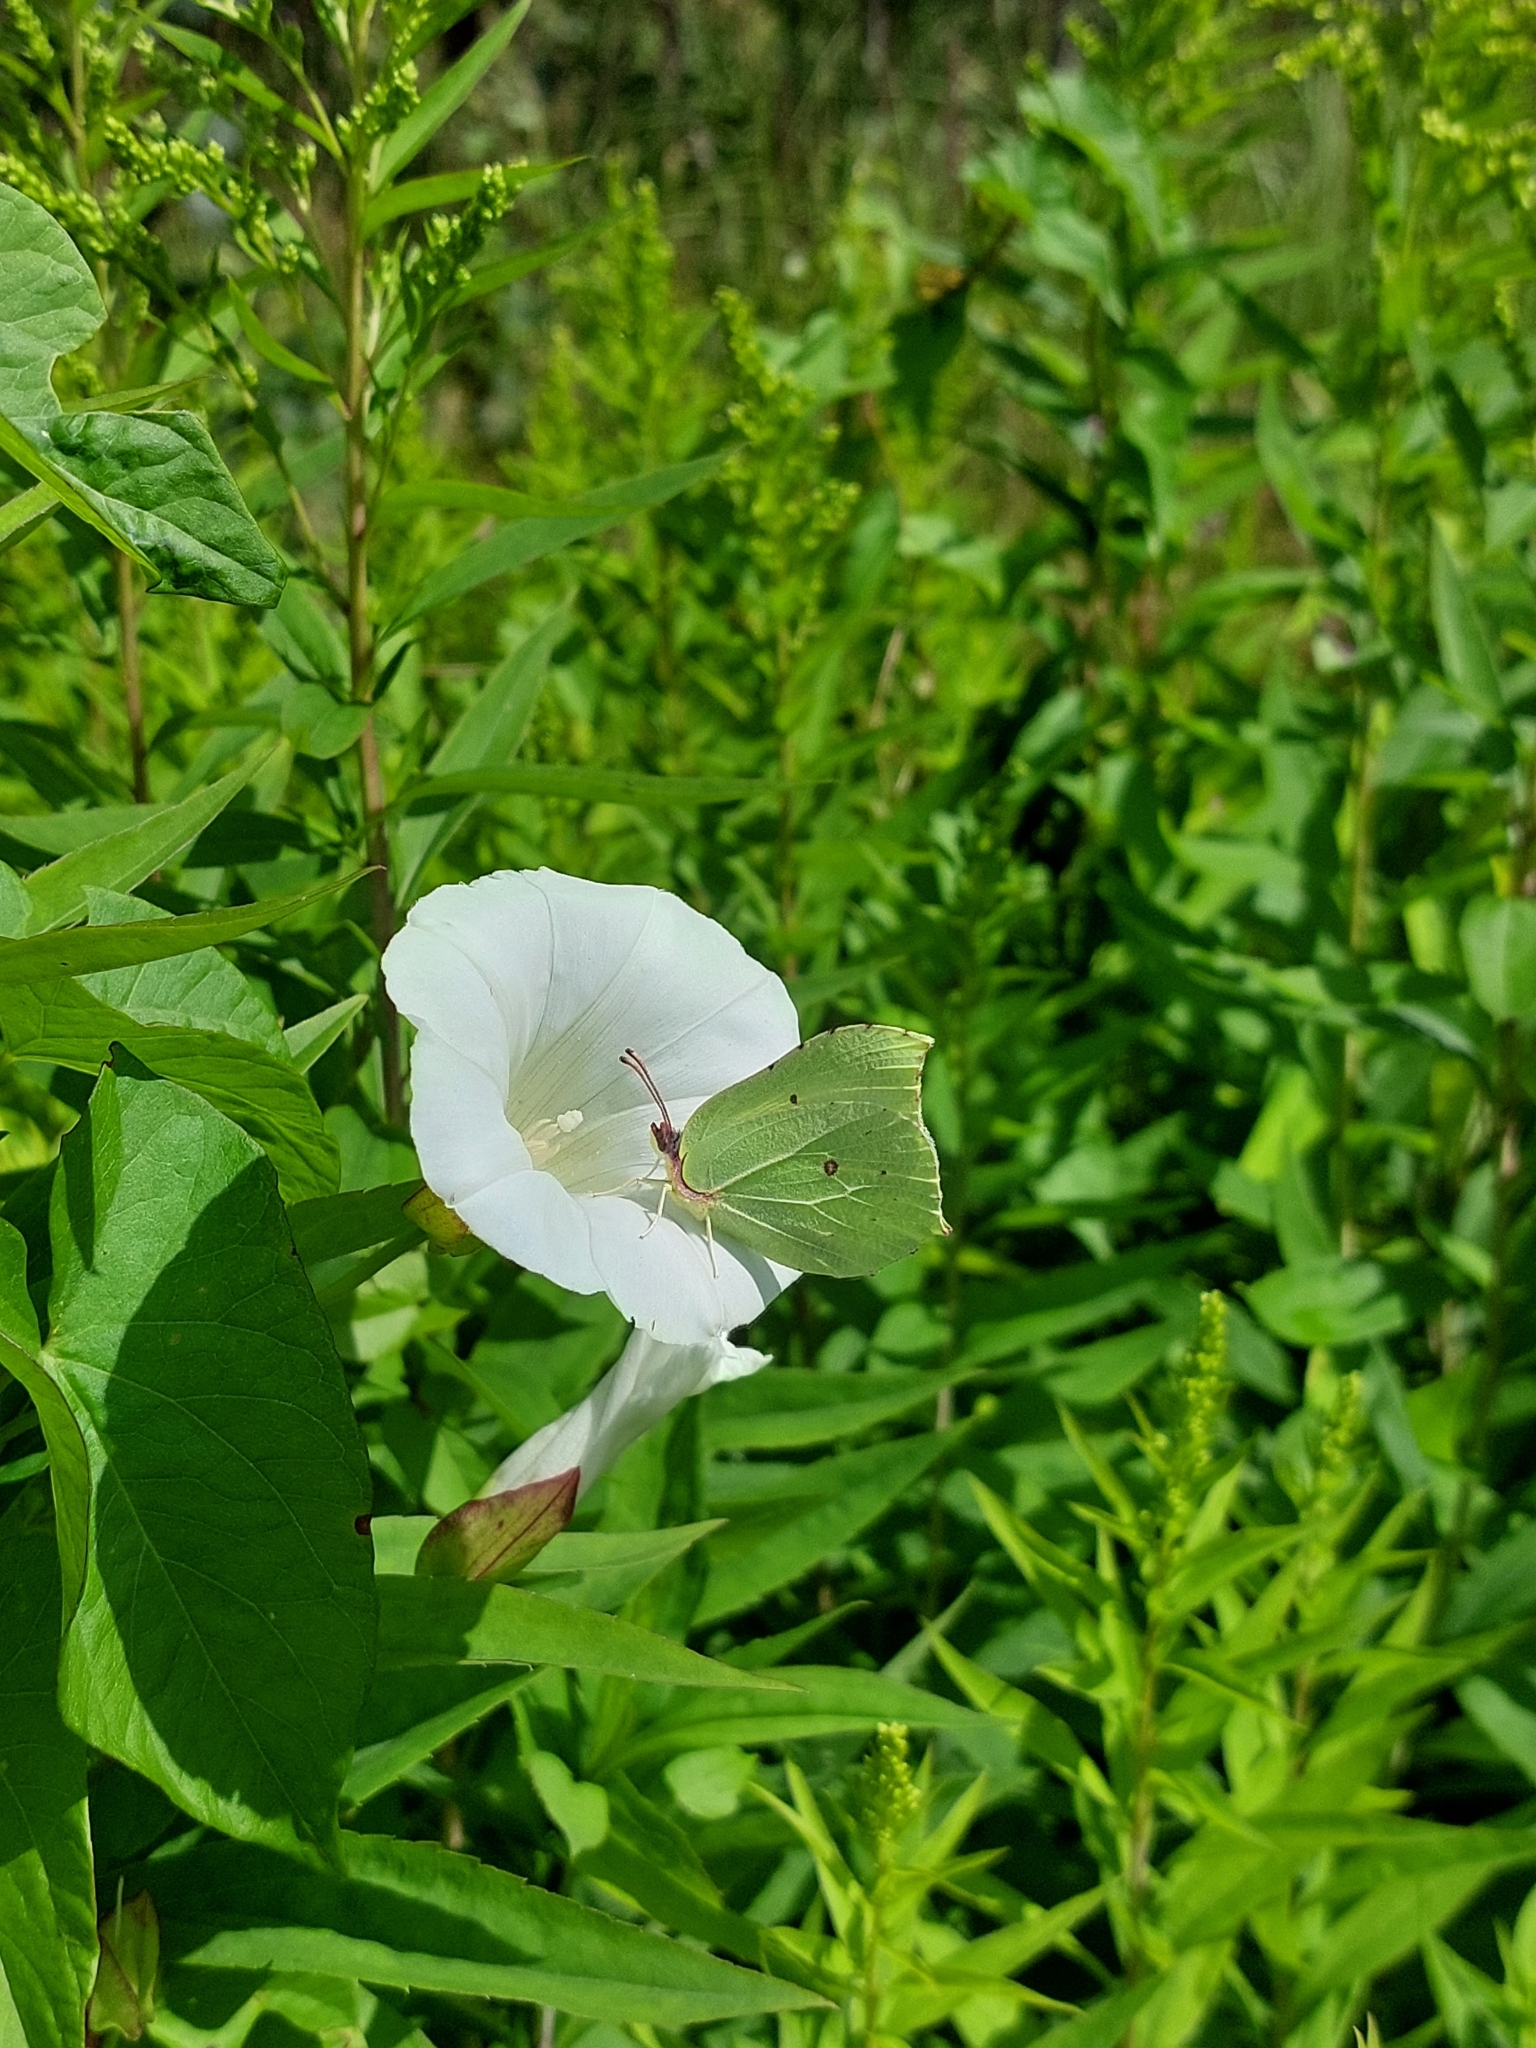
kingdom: Animalia
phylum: Arthropoda
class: Insecta
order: Lepidoptera
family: Pieridae
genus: Gonepteryx
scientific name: Gonepteryx rhamni
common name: Brimstone
